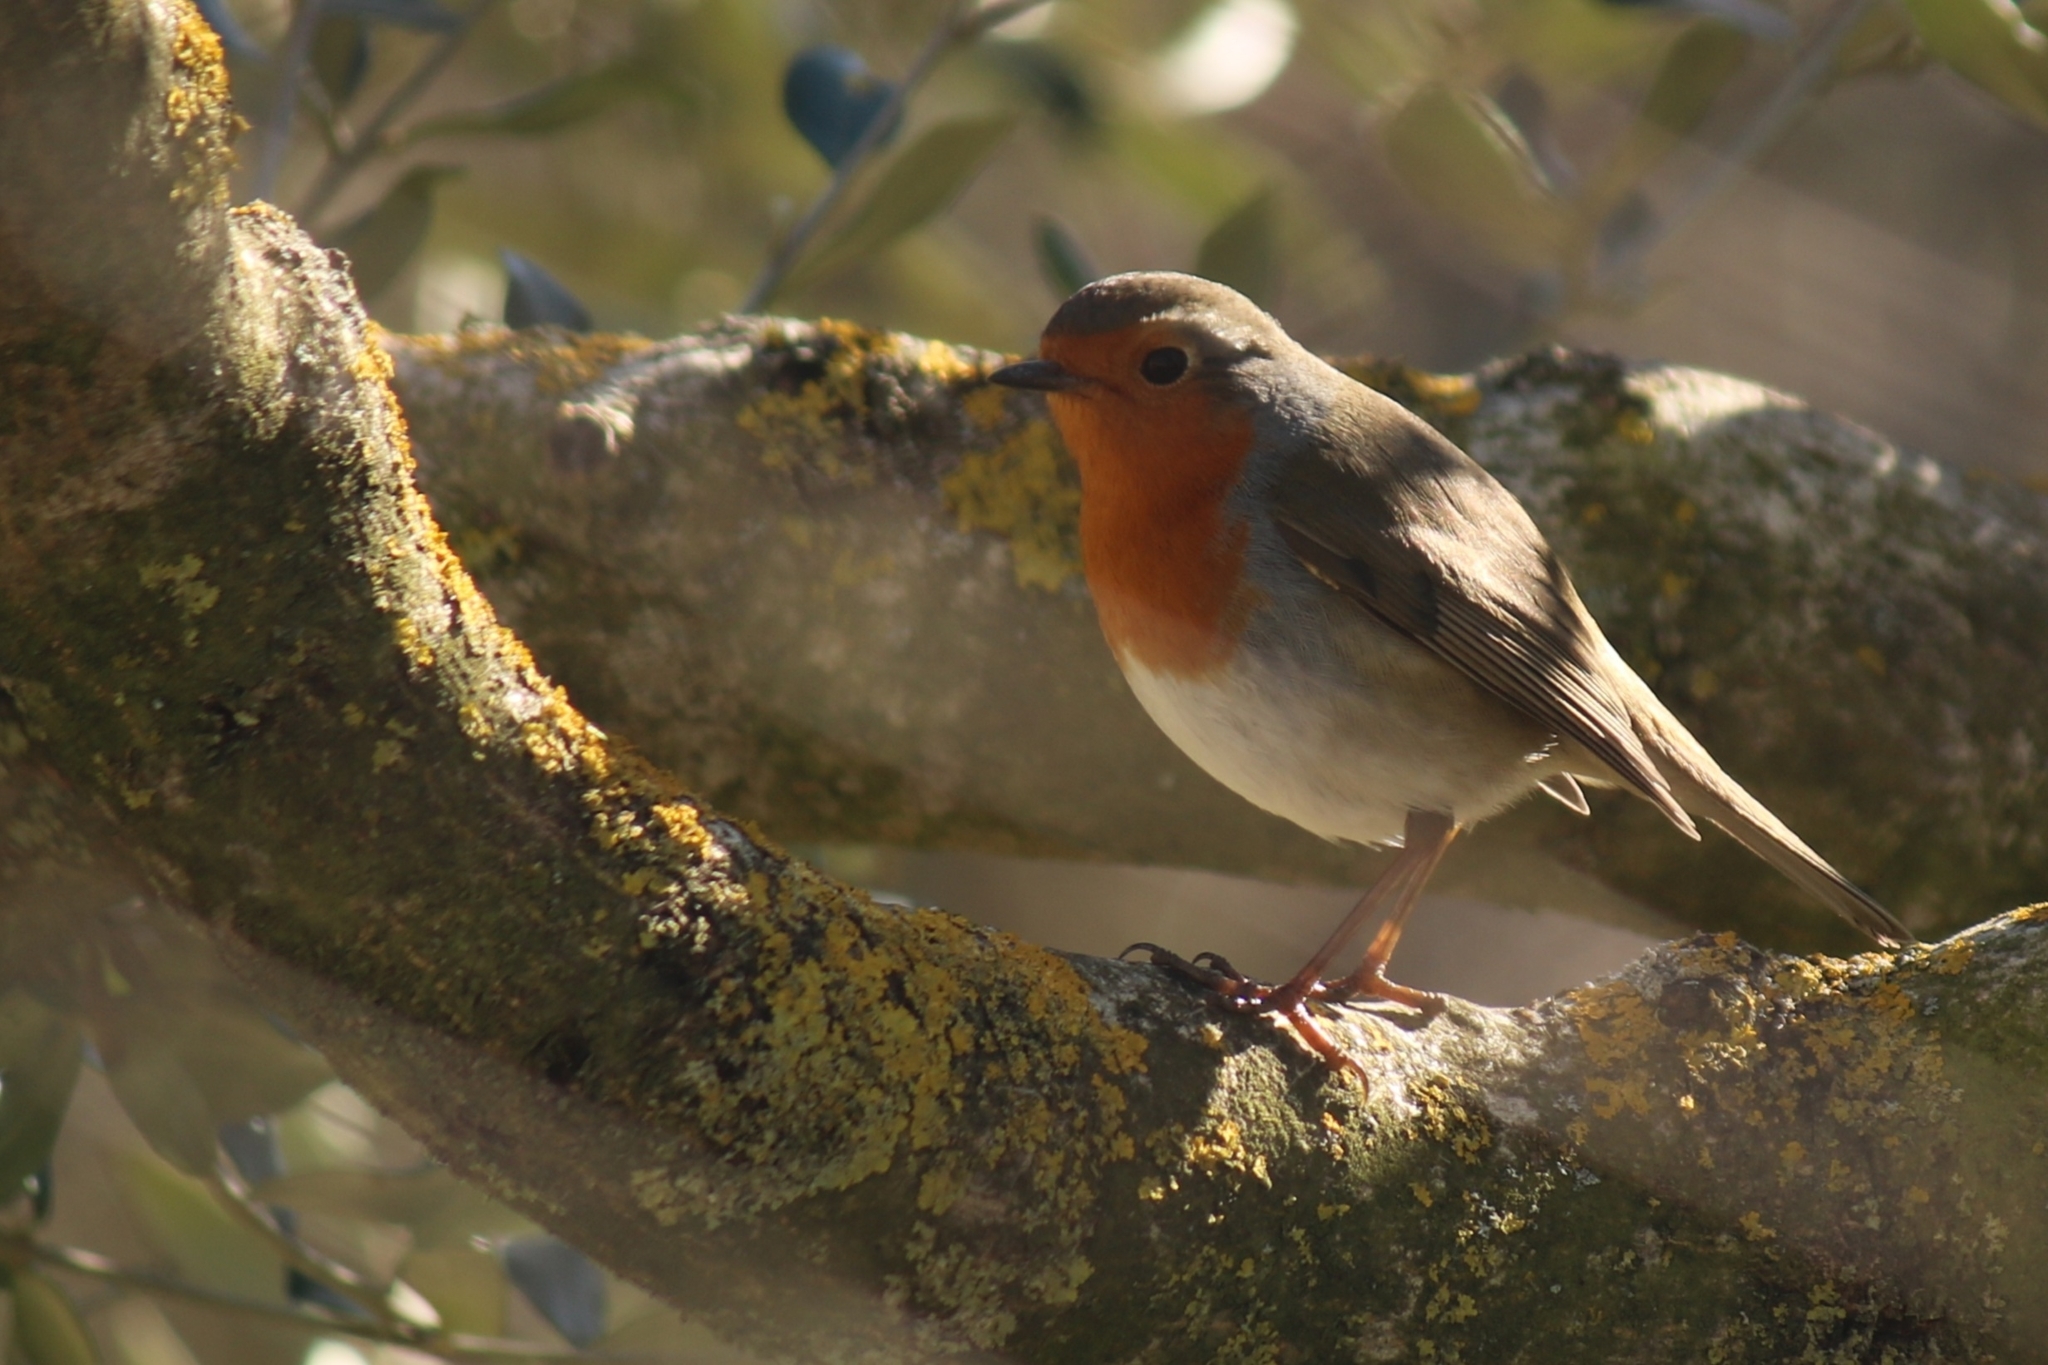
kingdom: Animalia
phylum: Chordata
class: Aves
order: Passeriformes
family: Muscicapidae
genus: Erithacus
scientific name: Erithacus rubecula
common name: European robin
